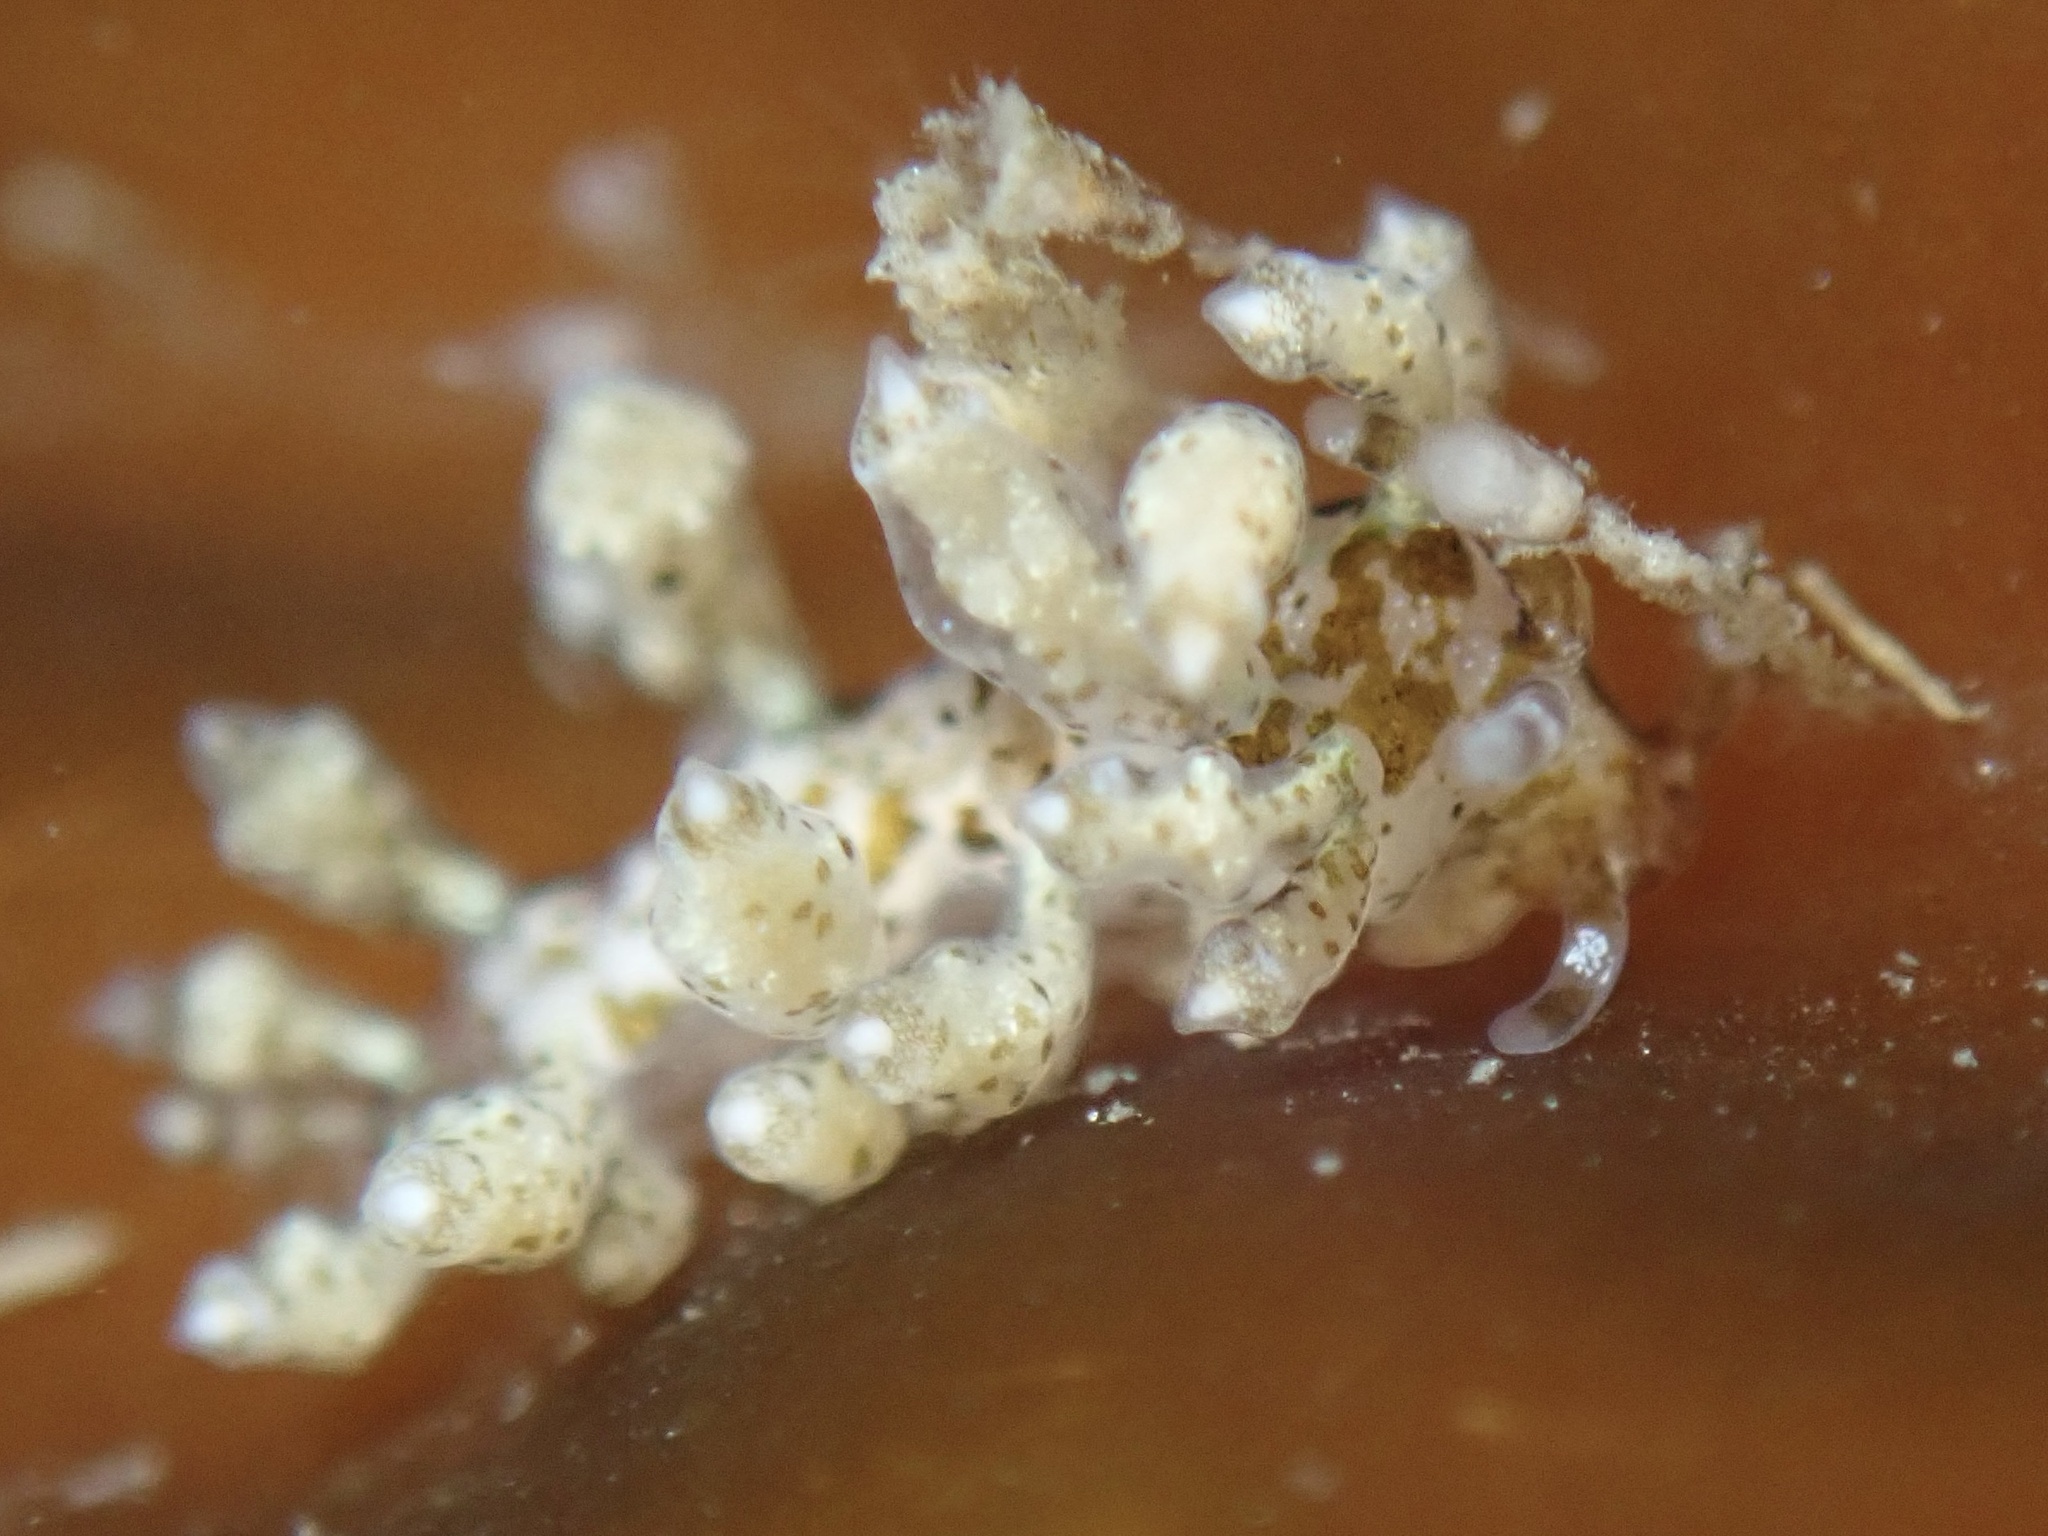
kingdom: Animalia
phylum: Mollusca
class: Gastropoda
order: Nudibranchia
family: Eubranchidae
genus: Eubranchus
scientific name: Eubranchus olivaceus
